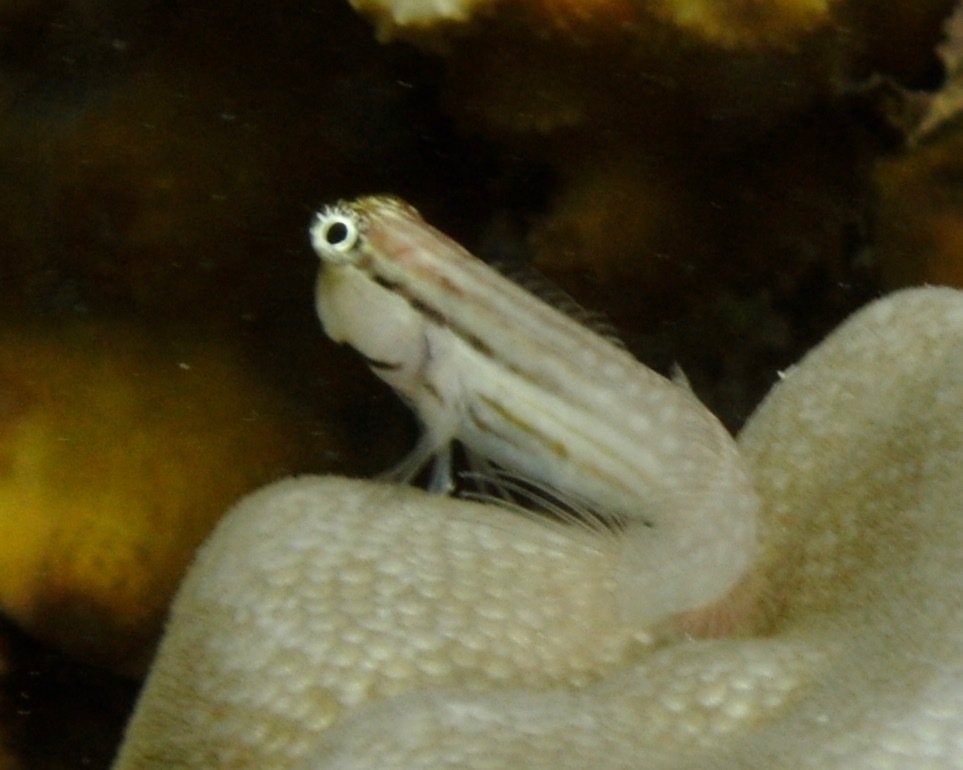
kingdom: Animalia
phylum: Chordata
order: Perciformes
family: Blenniidae
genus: Ecsenius
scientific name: Ecsenius nalolo
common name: Nalolo
